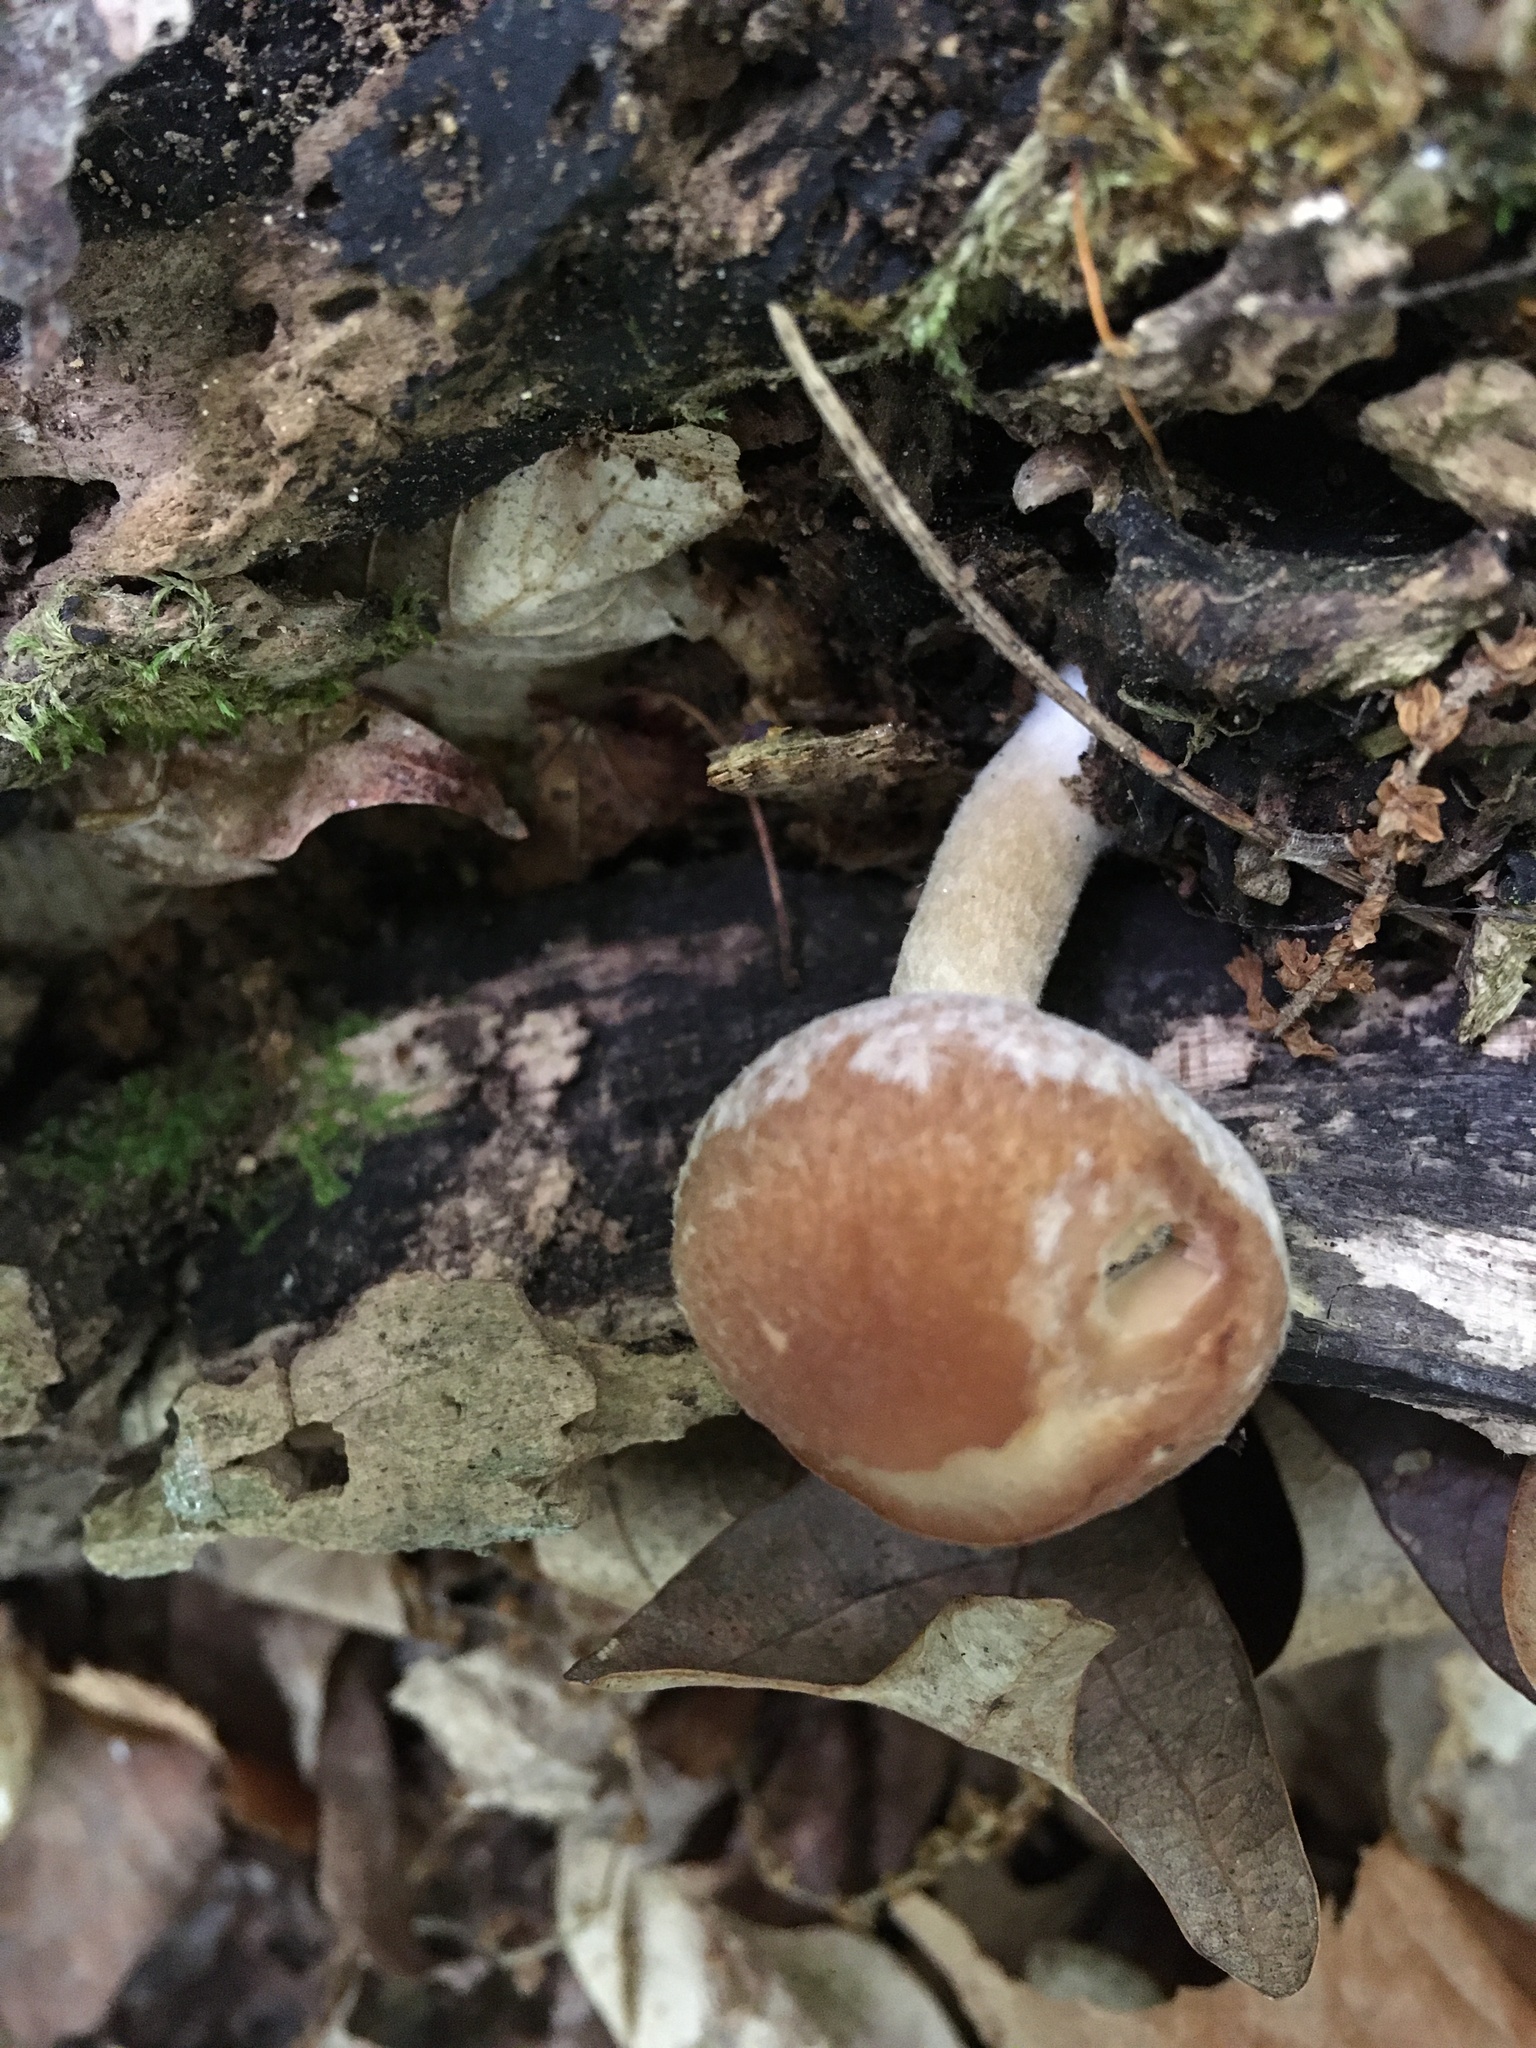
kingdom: Fungi
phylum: Basidiomycota
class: Agaricomycetes
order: Agaricales
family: Psathyrellaceae
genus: Typhrasa
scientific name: Typhrasa gossypina
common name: Wrinkled psathyrella
